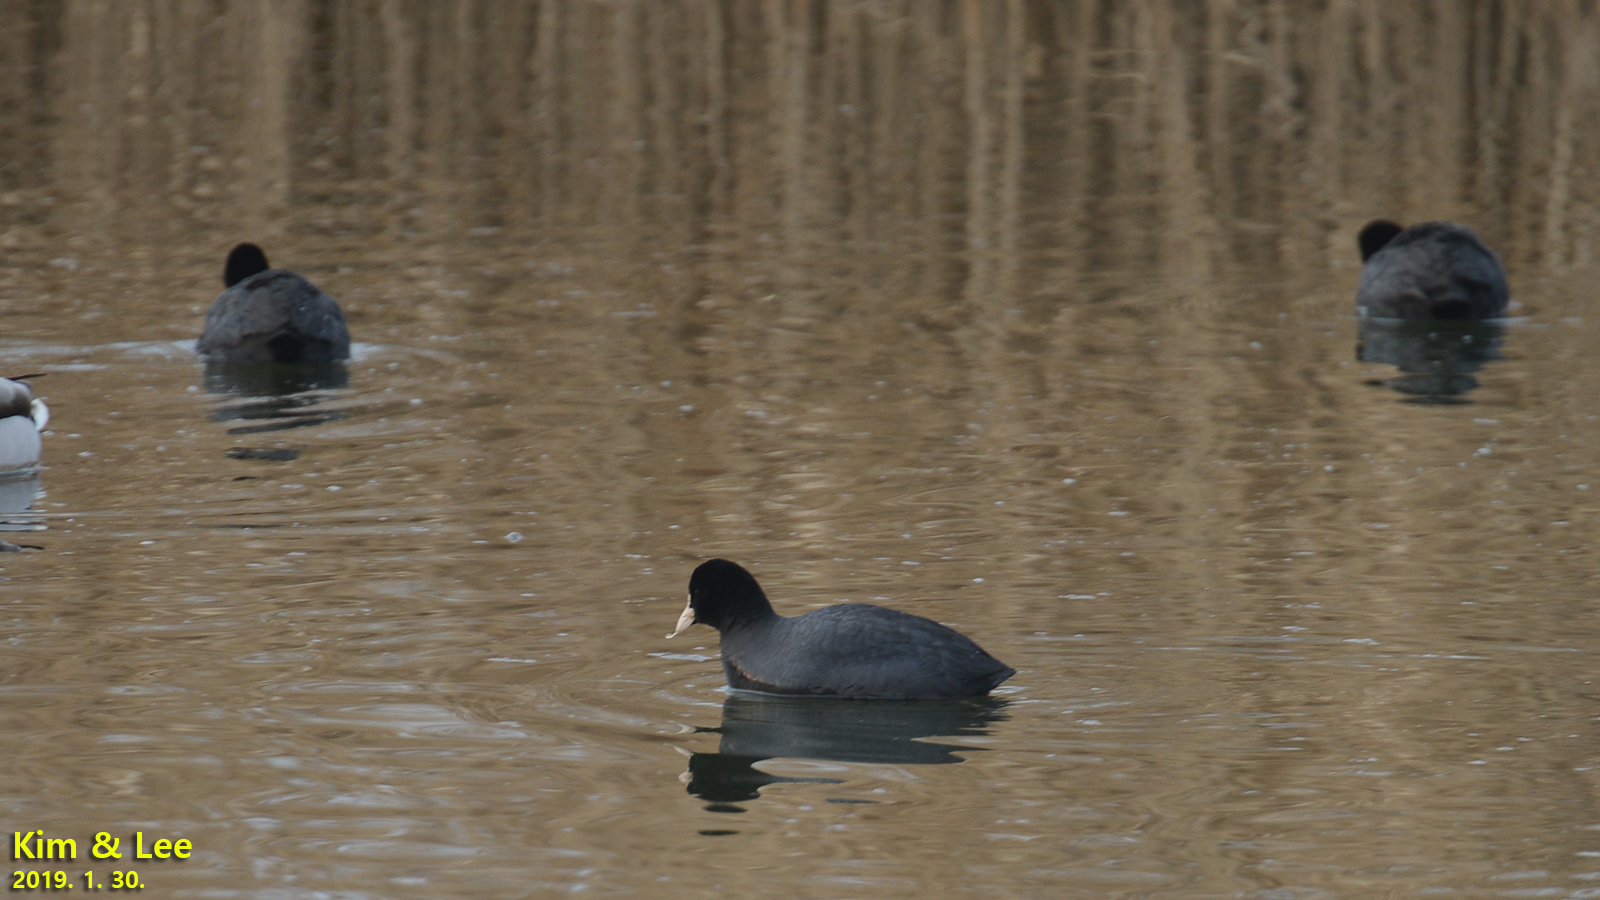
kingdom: Animalia
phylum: Chordata
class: Aves
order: Gruiformes
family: Rallidae
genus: Fulica
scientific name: Fulica atra
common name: Eurasian coot
